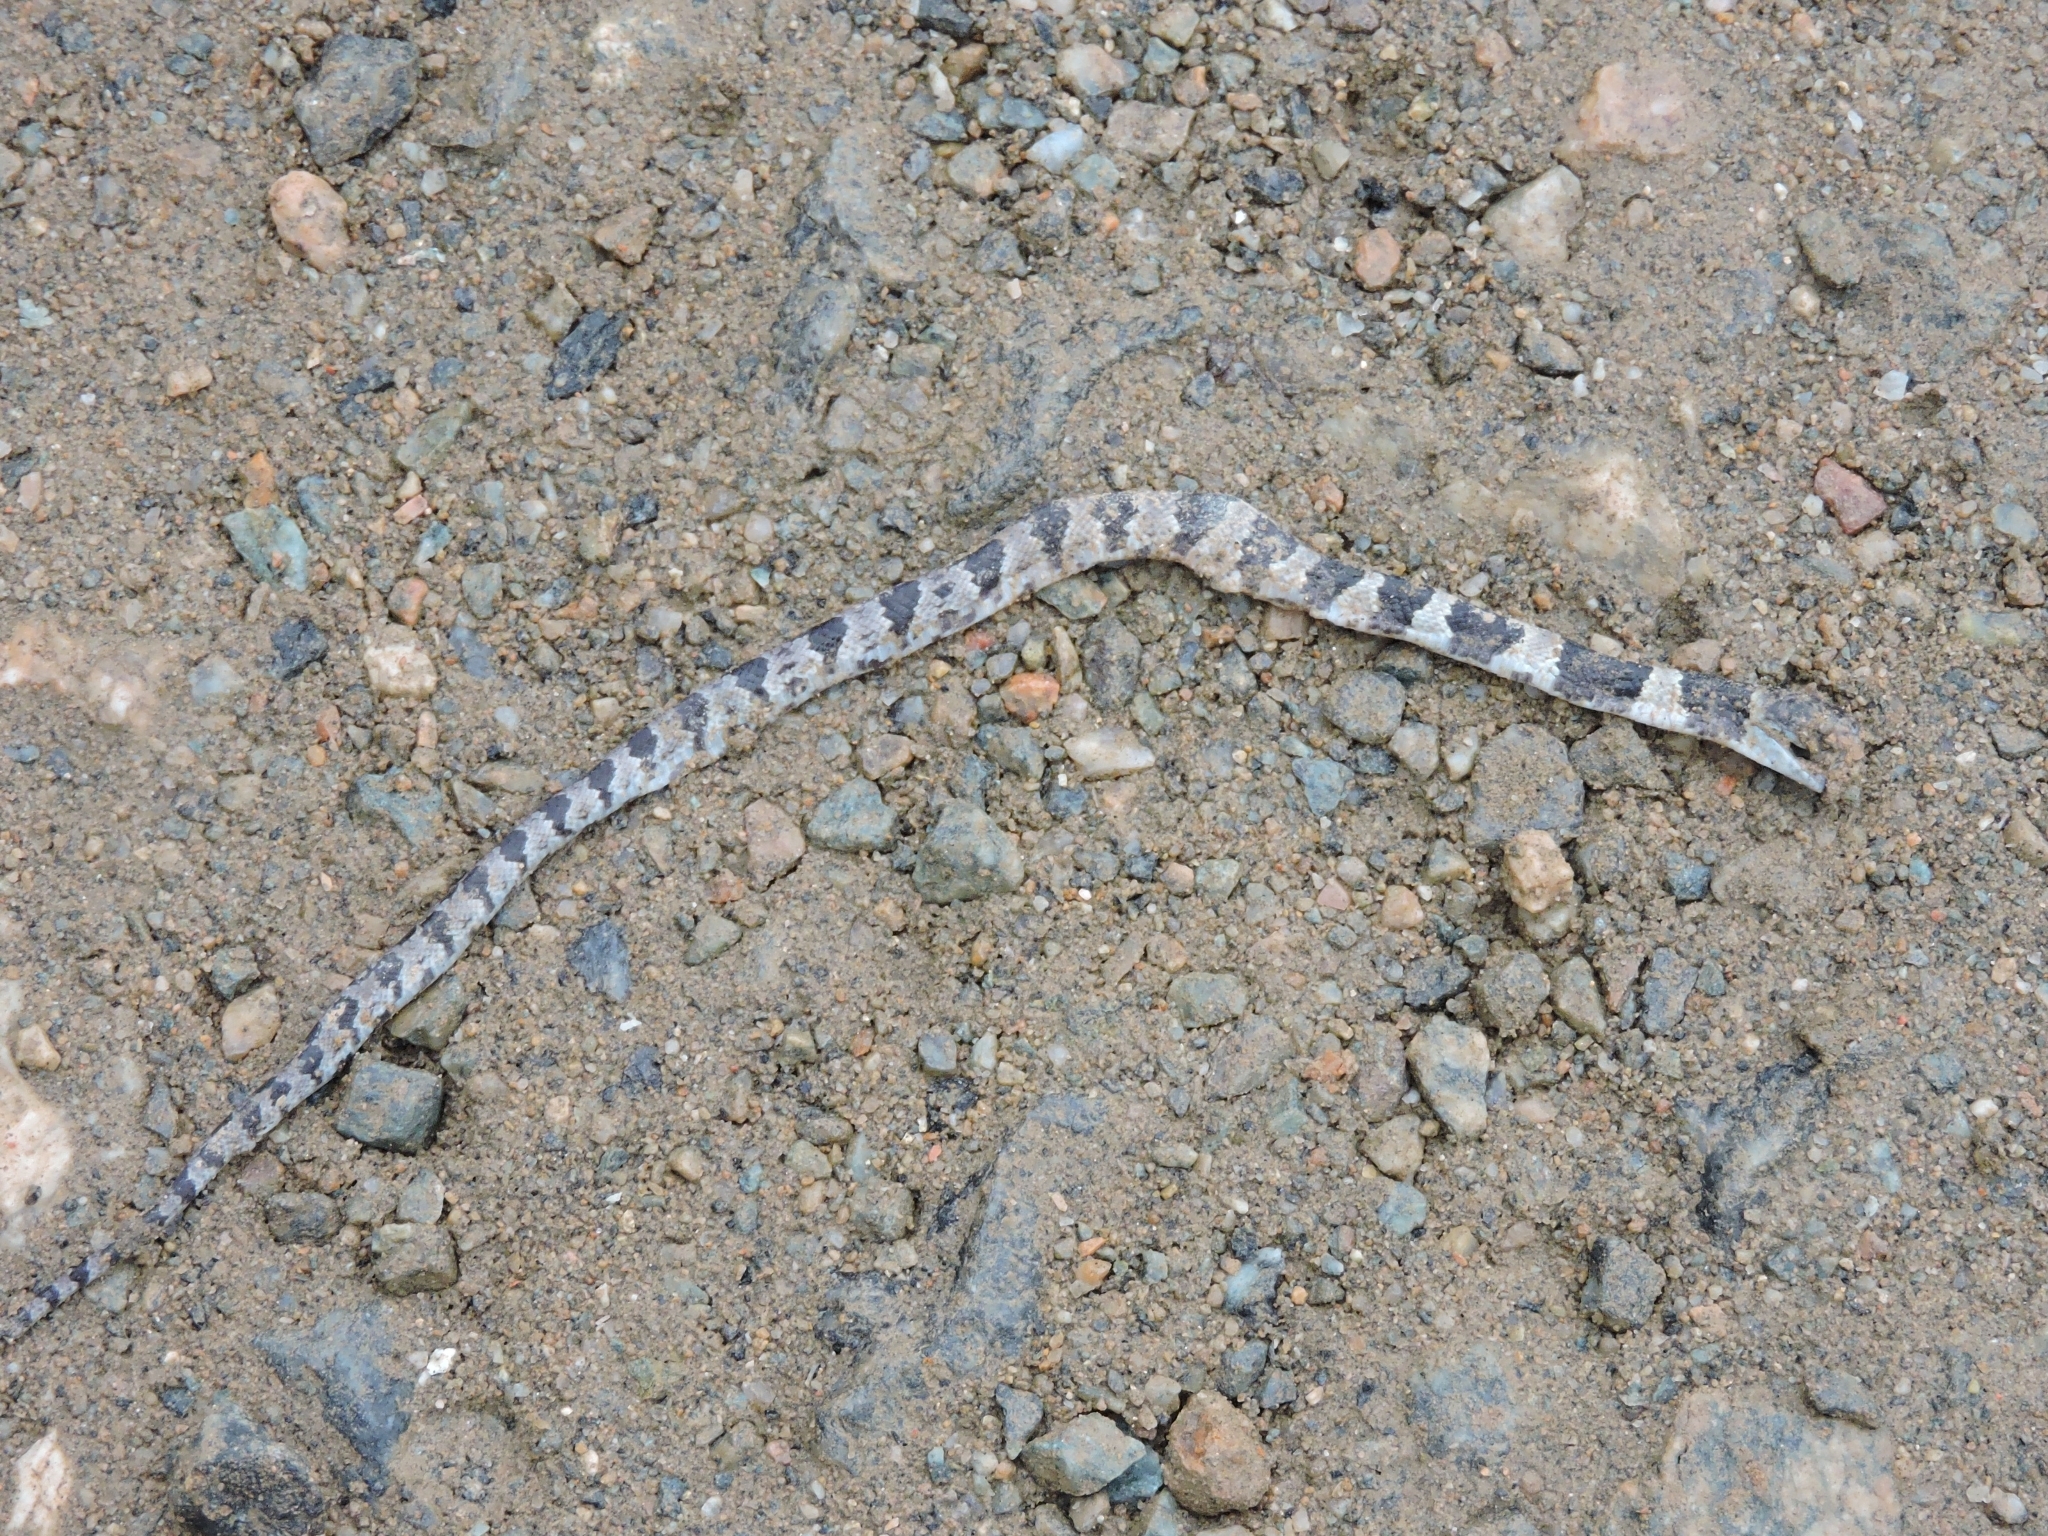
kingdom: Animalia
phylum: Chordata
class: Squamata
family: Colubridae
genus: Dipsas
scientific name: Dipsas neuwiedi
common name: Neuwied's tree snake
